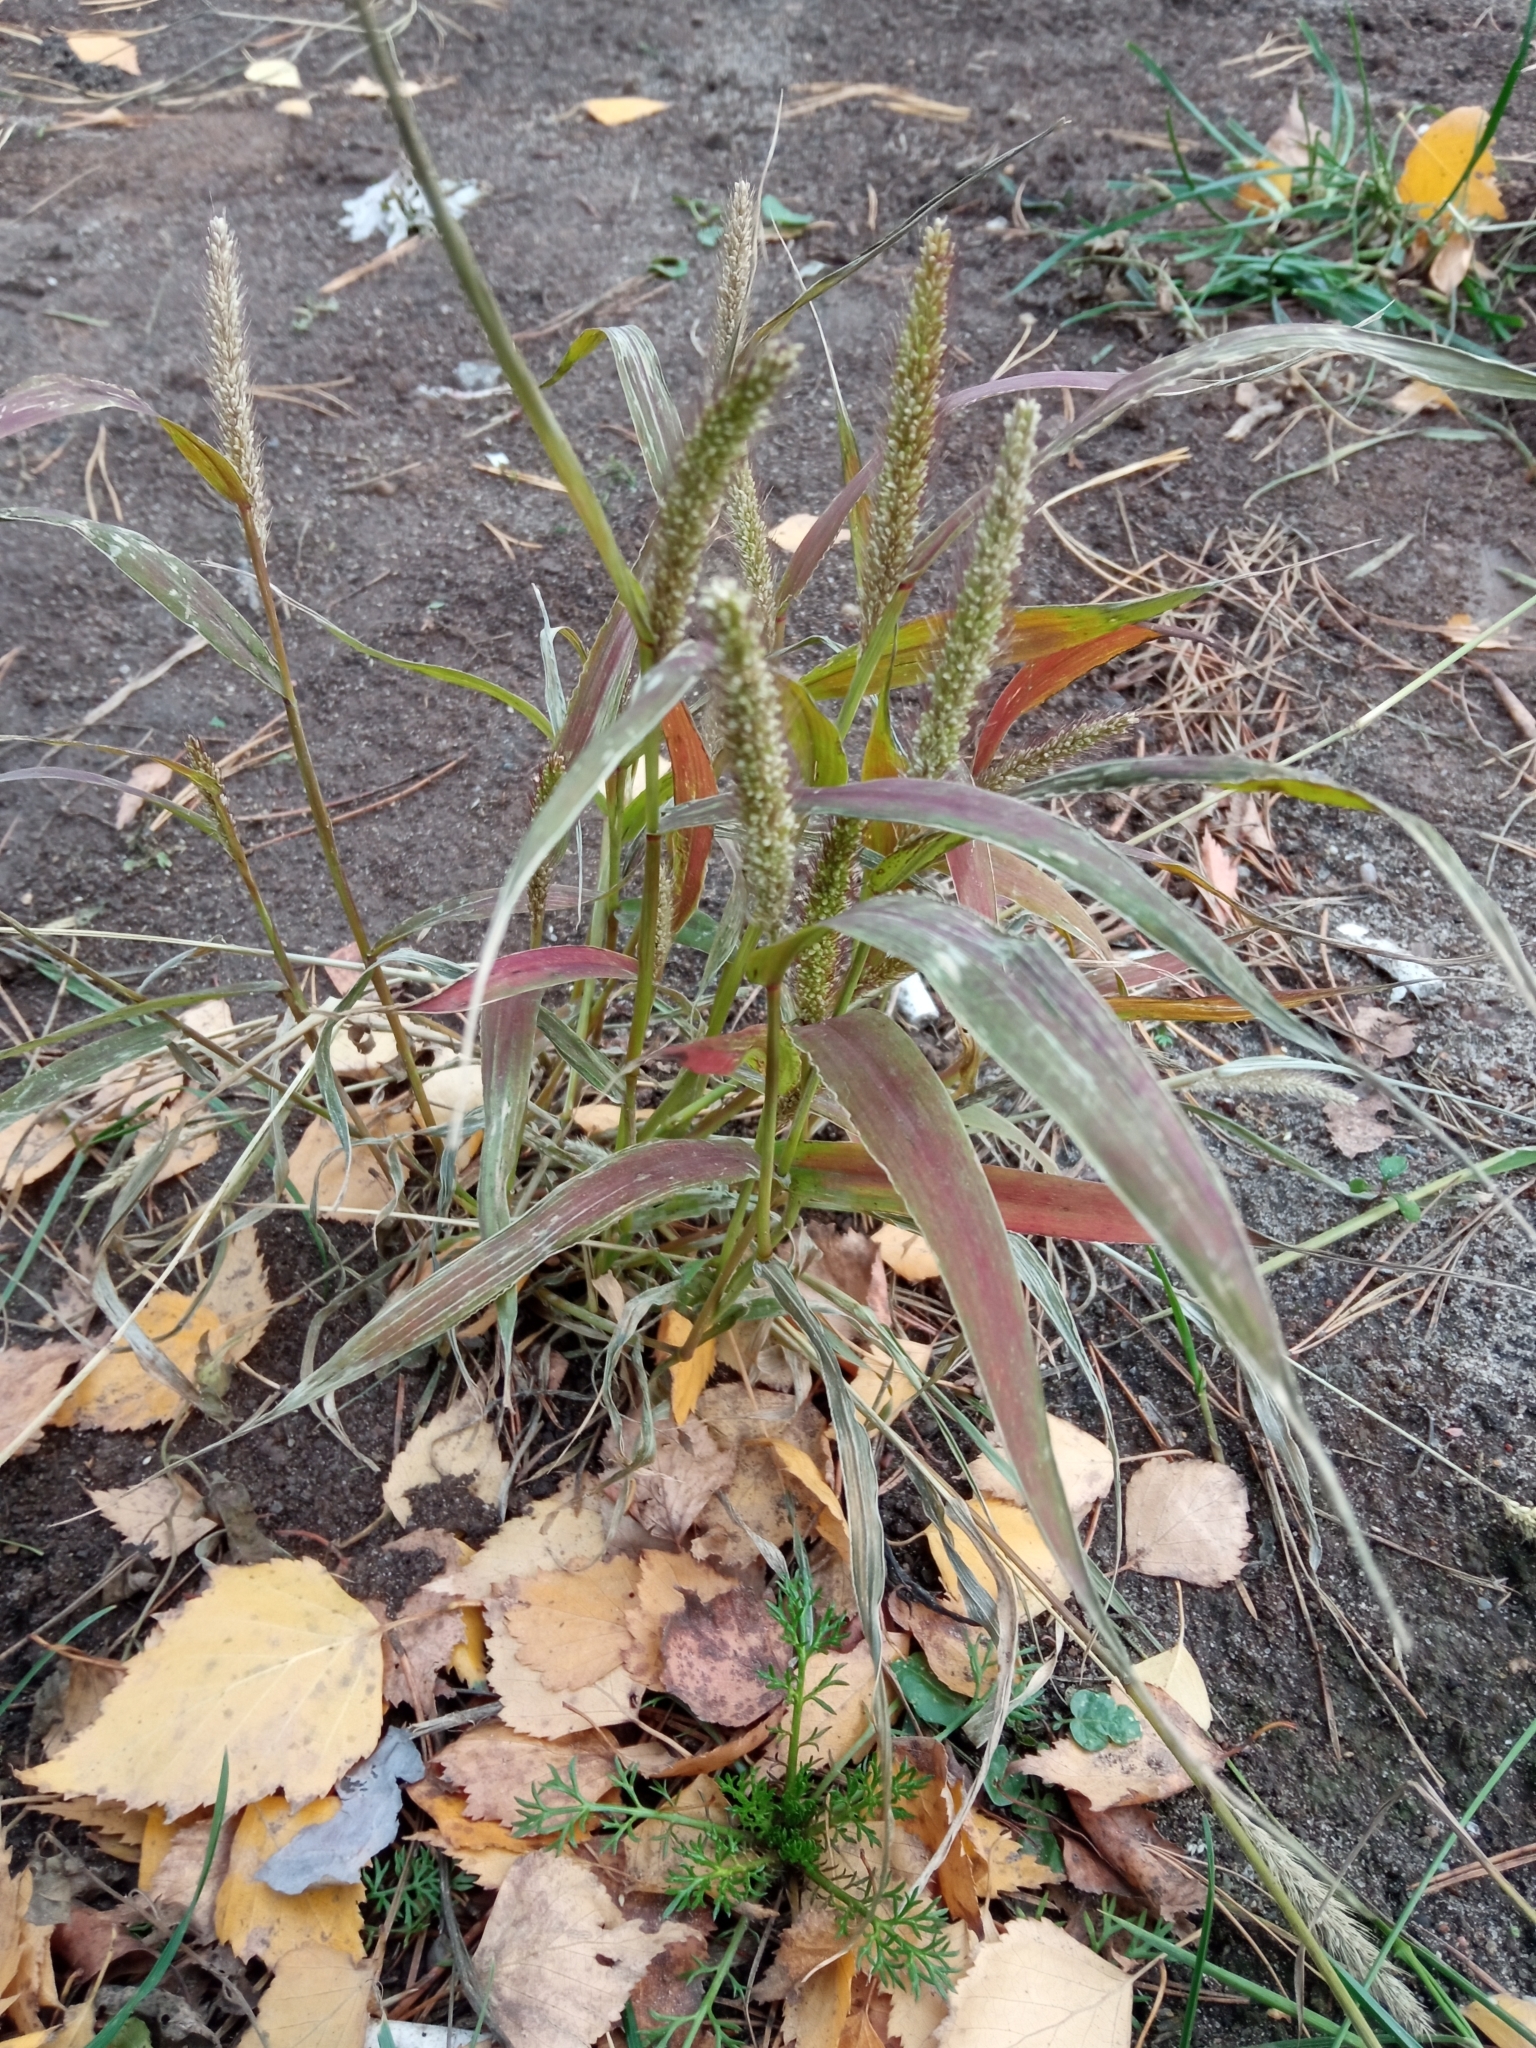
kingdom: Plantae
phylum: Tracheophyta
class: Liliopsida
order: Poales
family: Poaceae
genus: Setaria
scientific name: Setaria viridis
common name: Green bristlegrass
